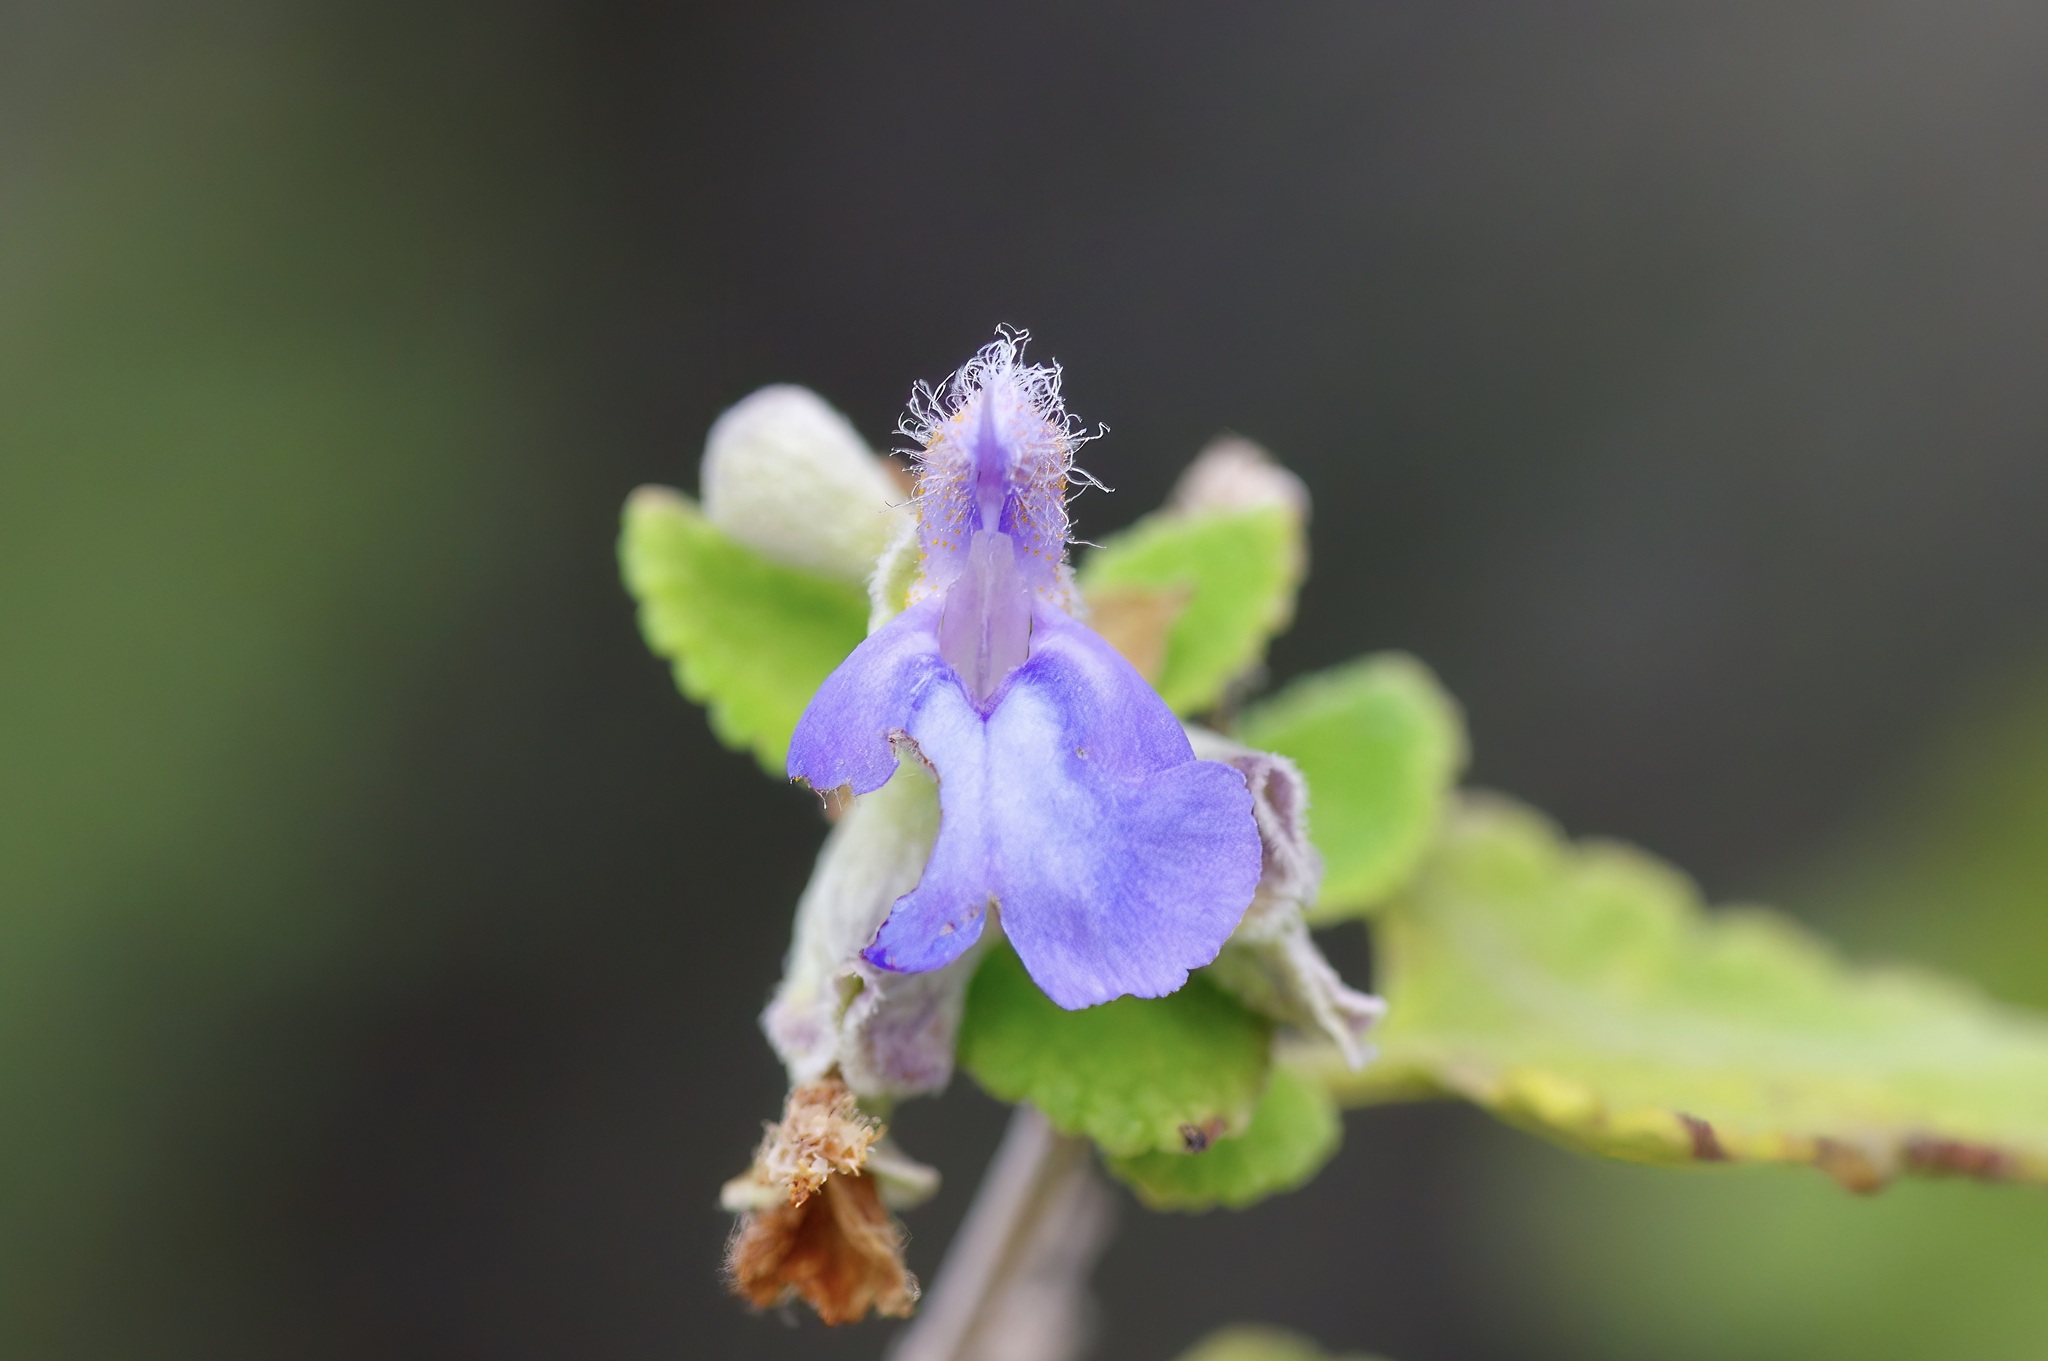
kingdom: Plantae
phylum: Tracheophyta
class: Magnoliopsida
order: Lamiales
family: Lamiaceae
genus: Salvia
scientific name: Salvia ballotiflora
